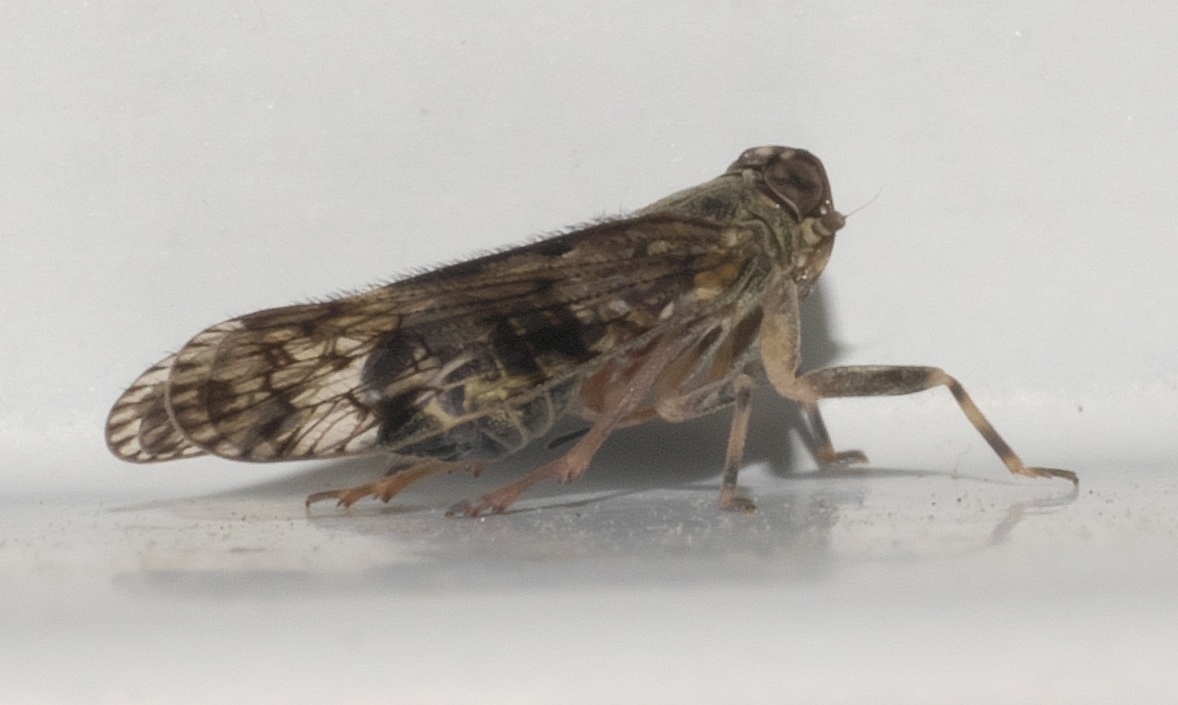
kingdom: Animalia
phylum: Arthropoda
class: Insecta
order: Hemiptera
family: Cixiidae
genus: Melanoliarus
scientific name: Melanoliarus placitus
